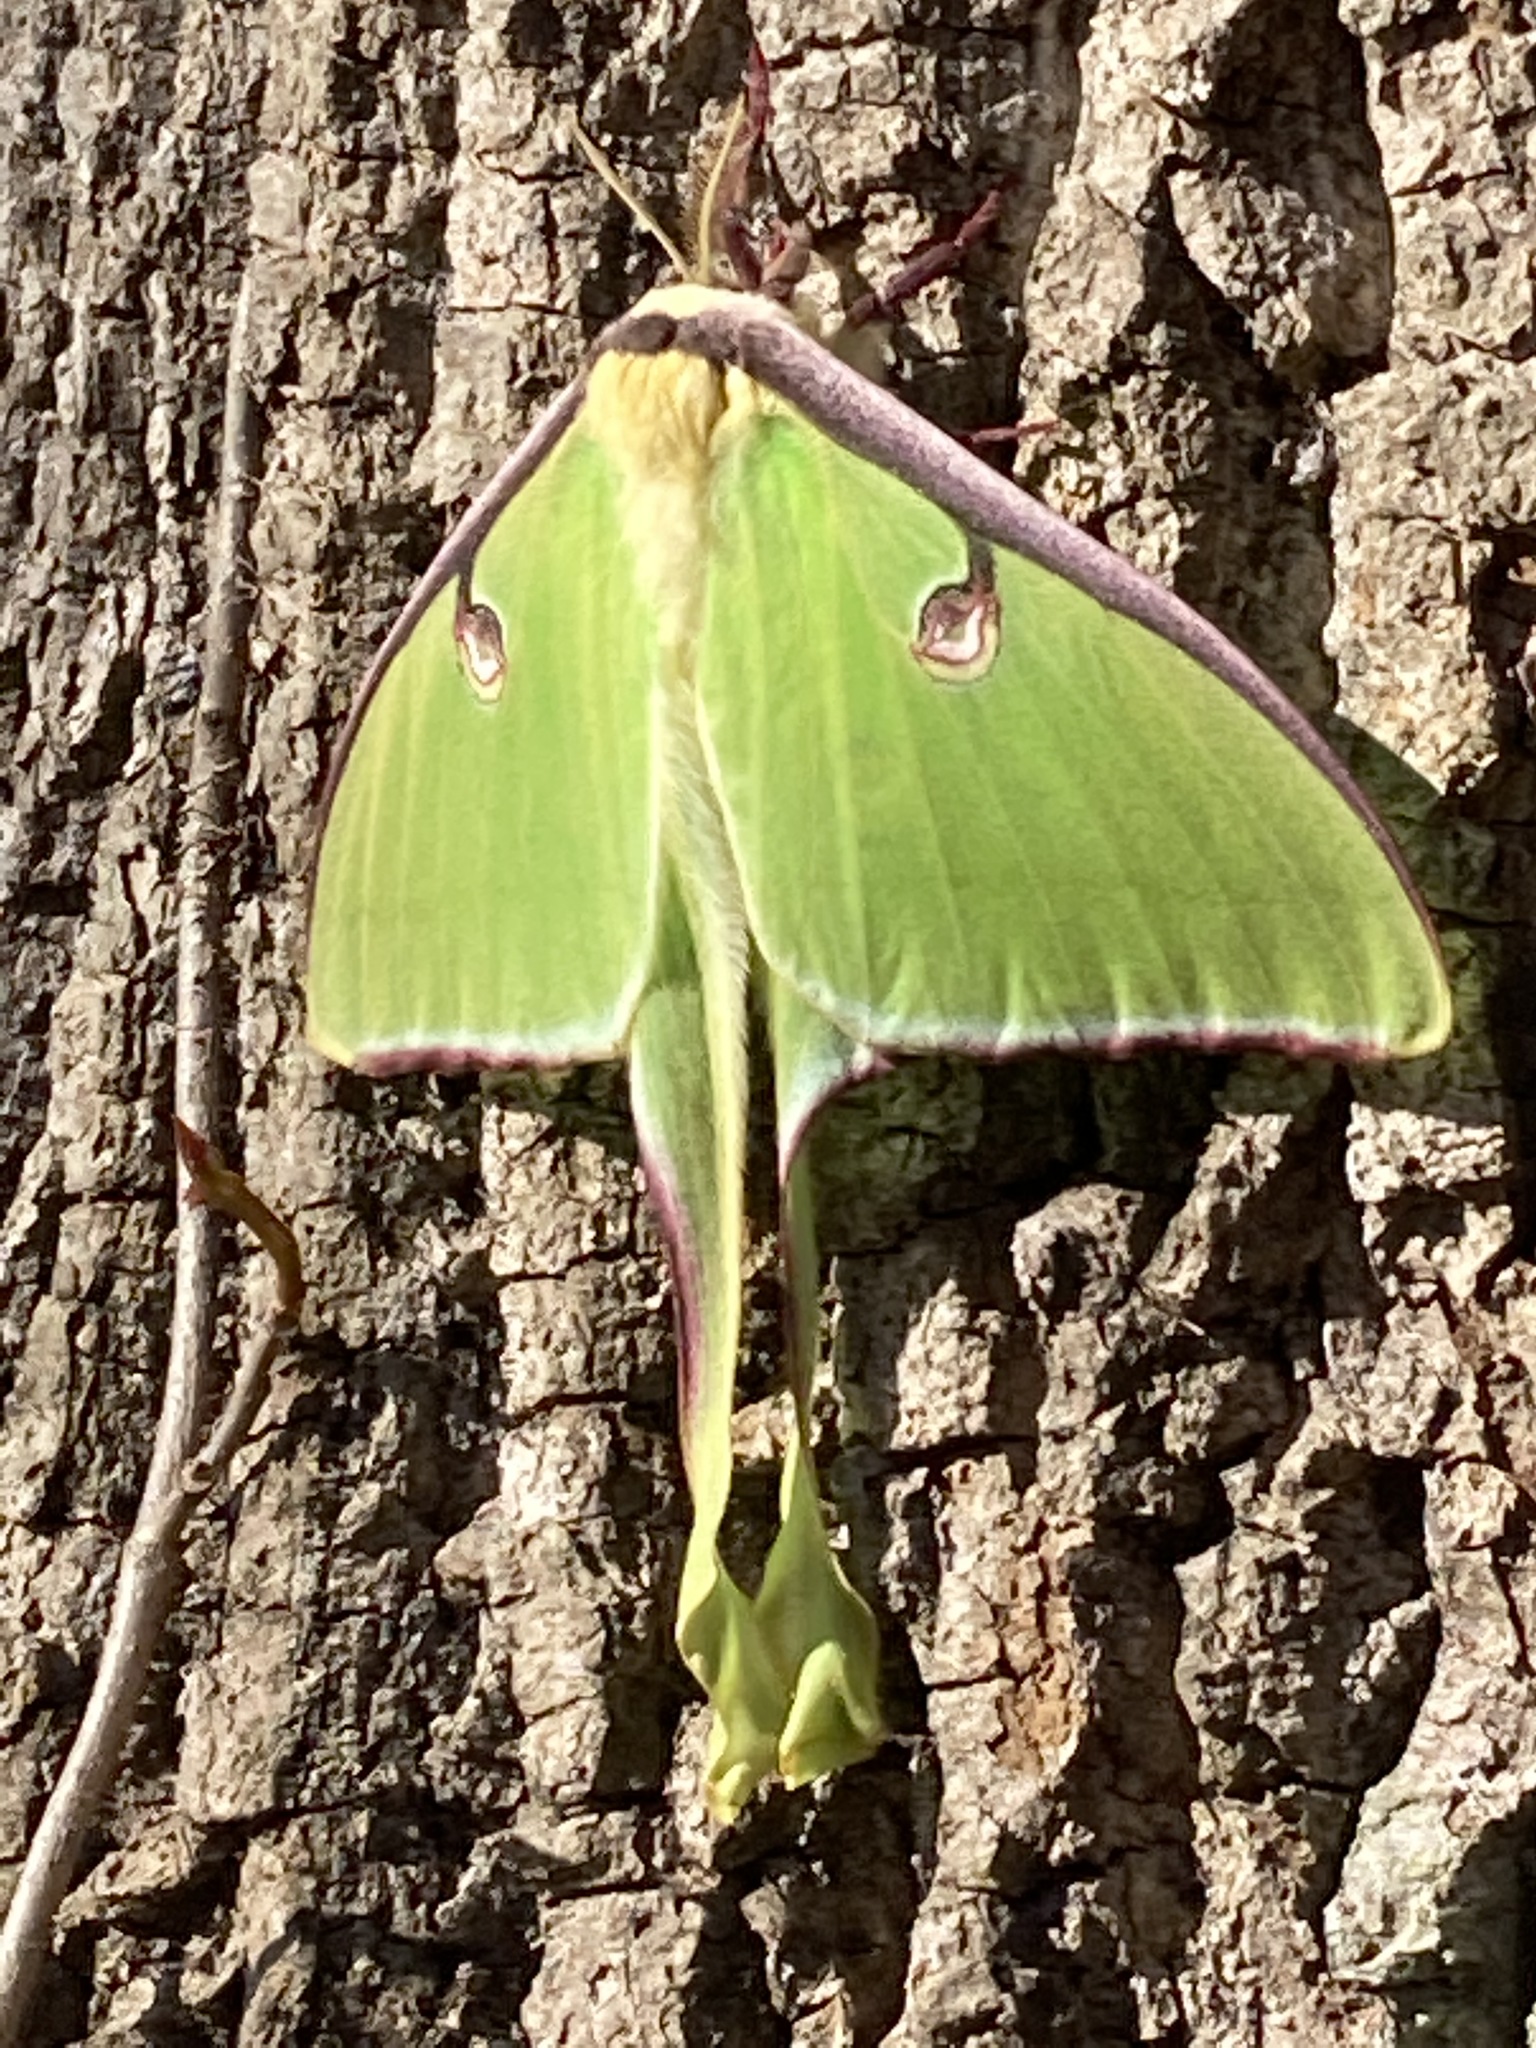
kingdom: Animalia
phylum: Arthropoda
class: Insecta
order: Lepidoptera
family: Saturniidae
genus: Actias
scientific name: Actias luna
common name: Luna moth
